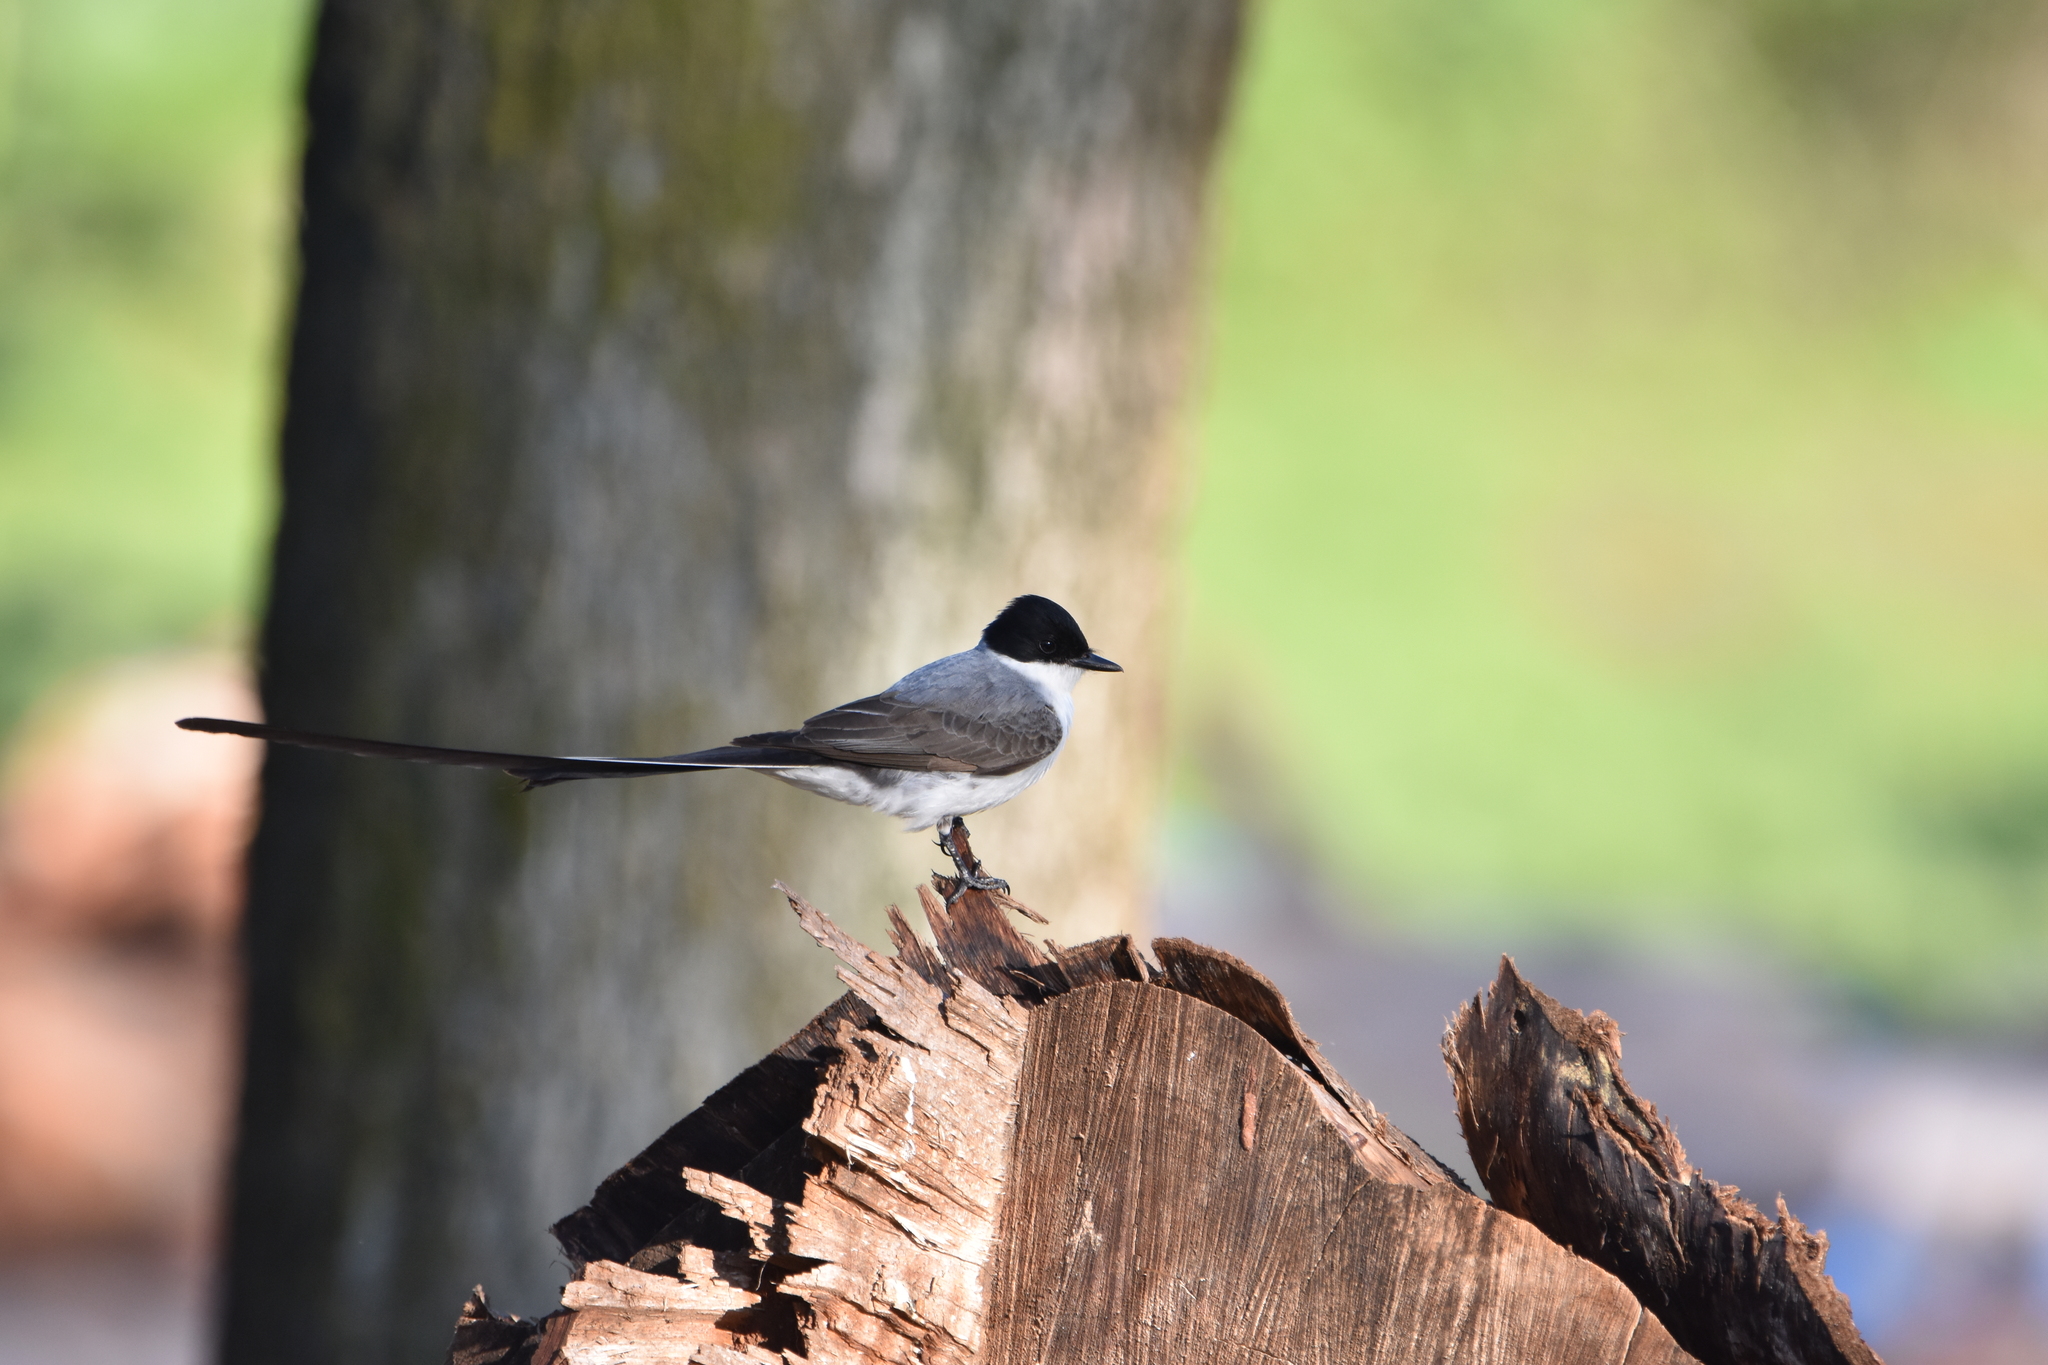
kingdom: Animalia
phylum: Chordata
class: Aves
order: Passeriformes
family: Tyrannidae
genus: Tyrannus
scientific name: Tyrannus savana
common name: Fork-tailed flycatcher
